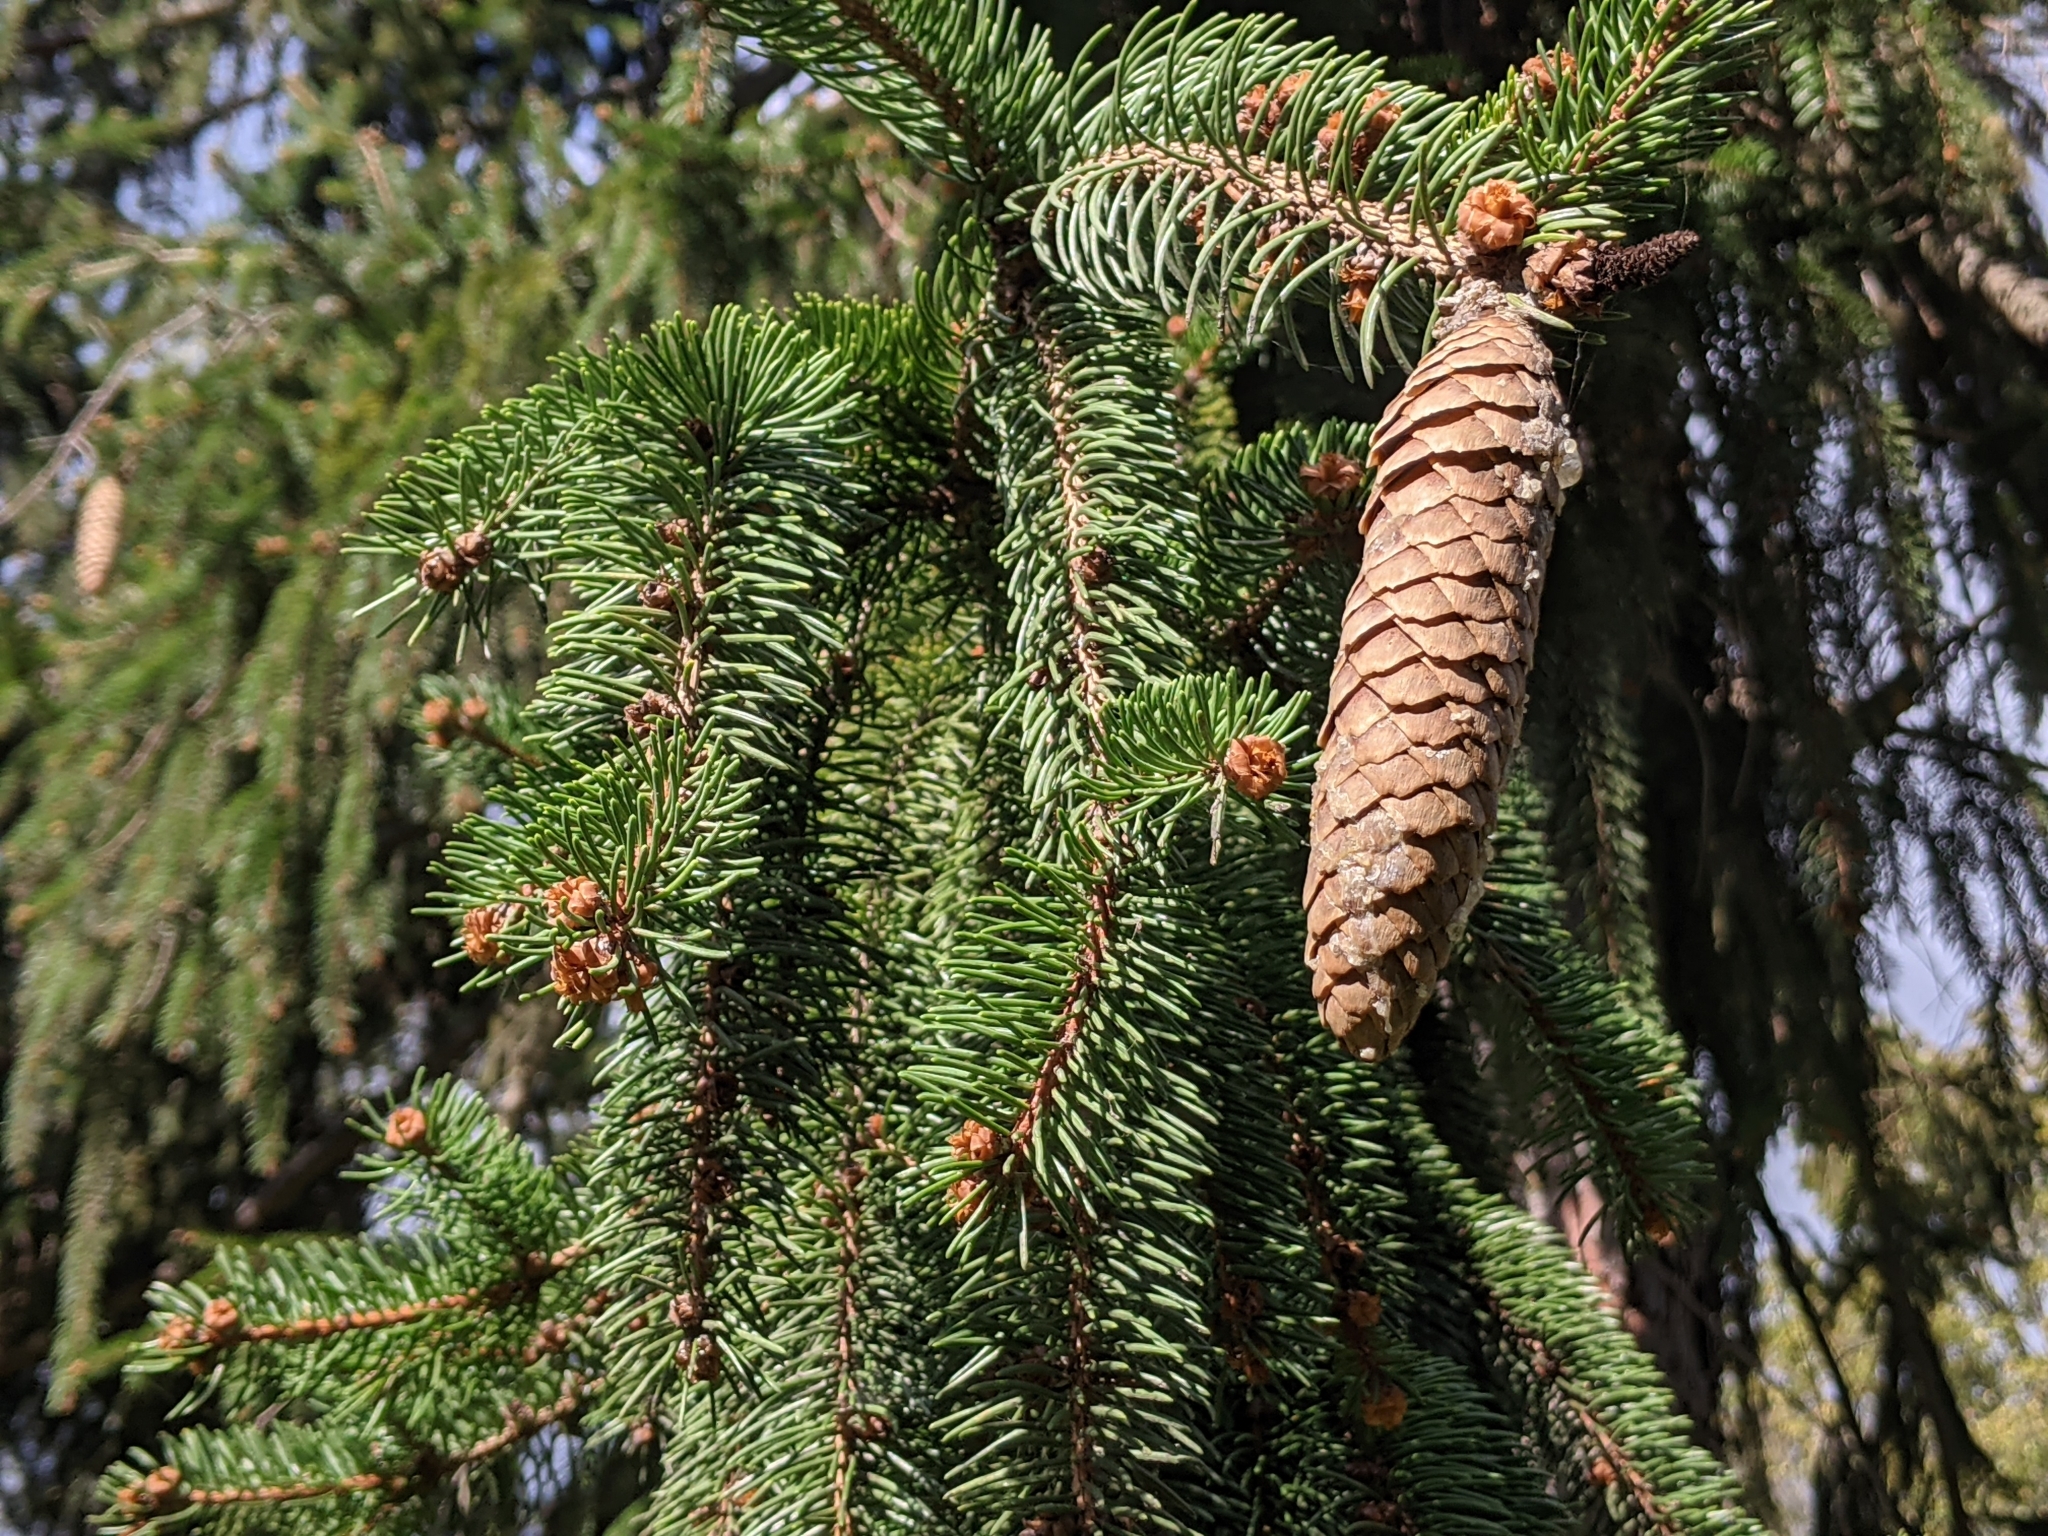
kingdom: Plantae
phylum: Tracheophyta
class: Pinopsida
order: Pinales
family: Pinaceae
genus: Picea
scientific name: Picea abies
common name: Norway spruce
